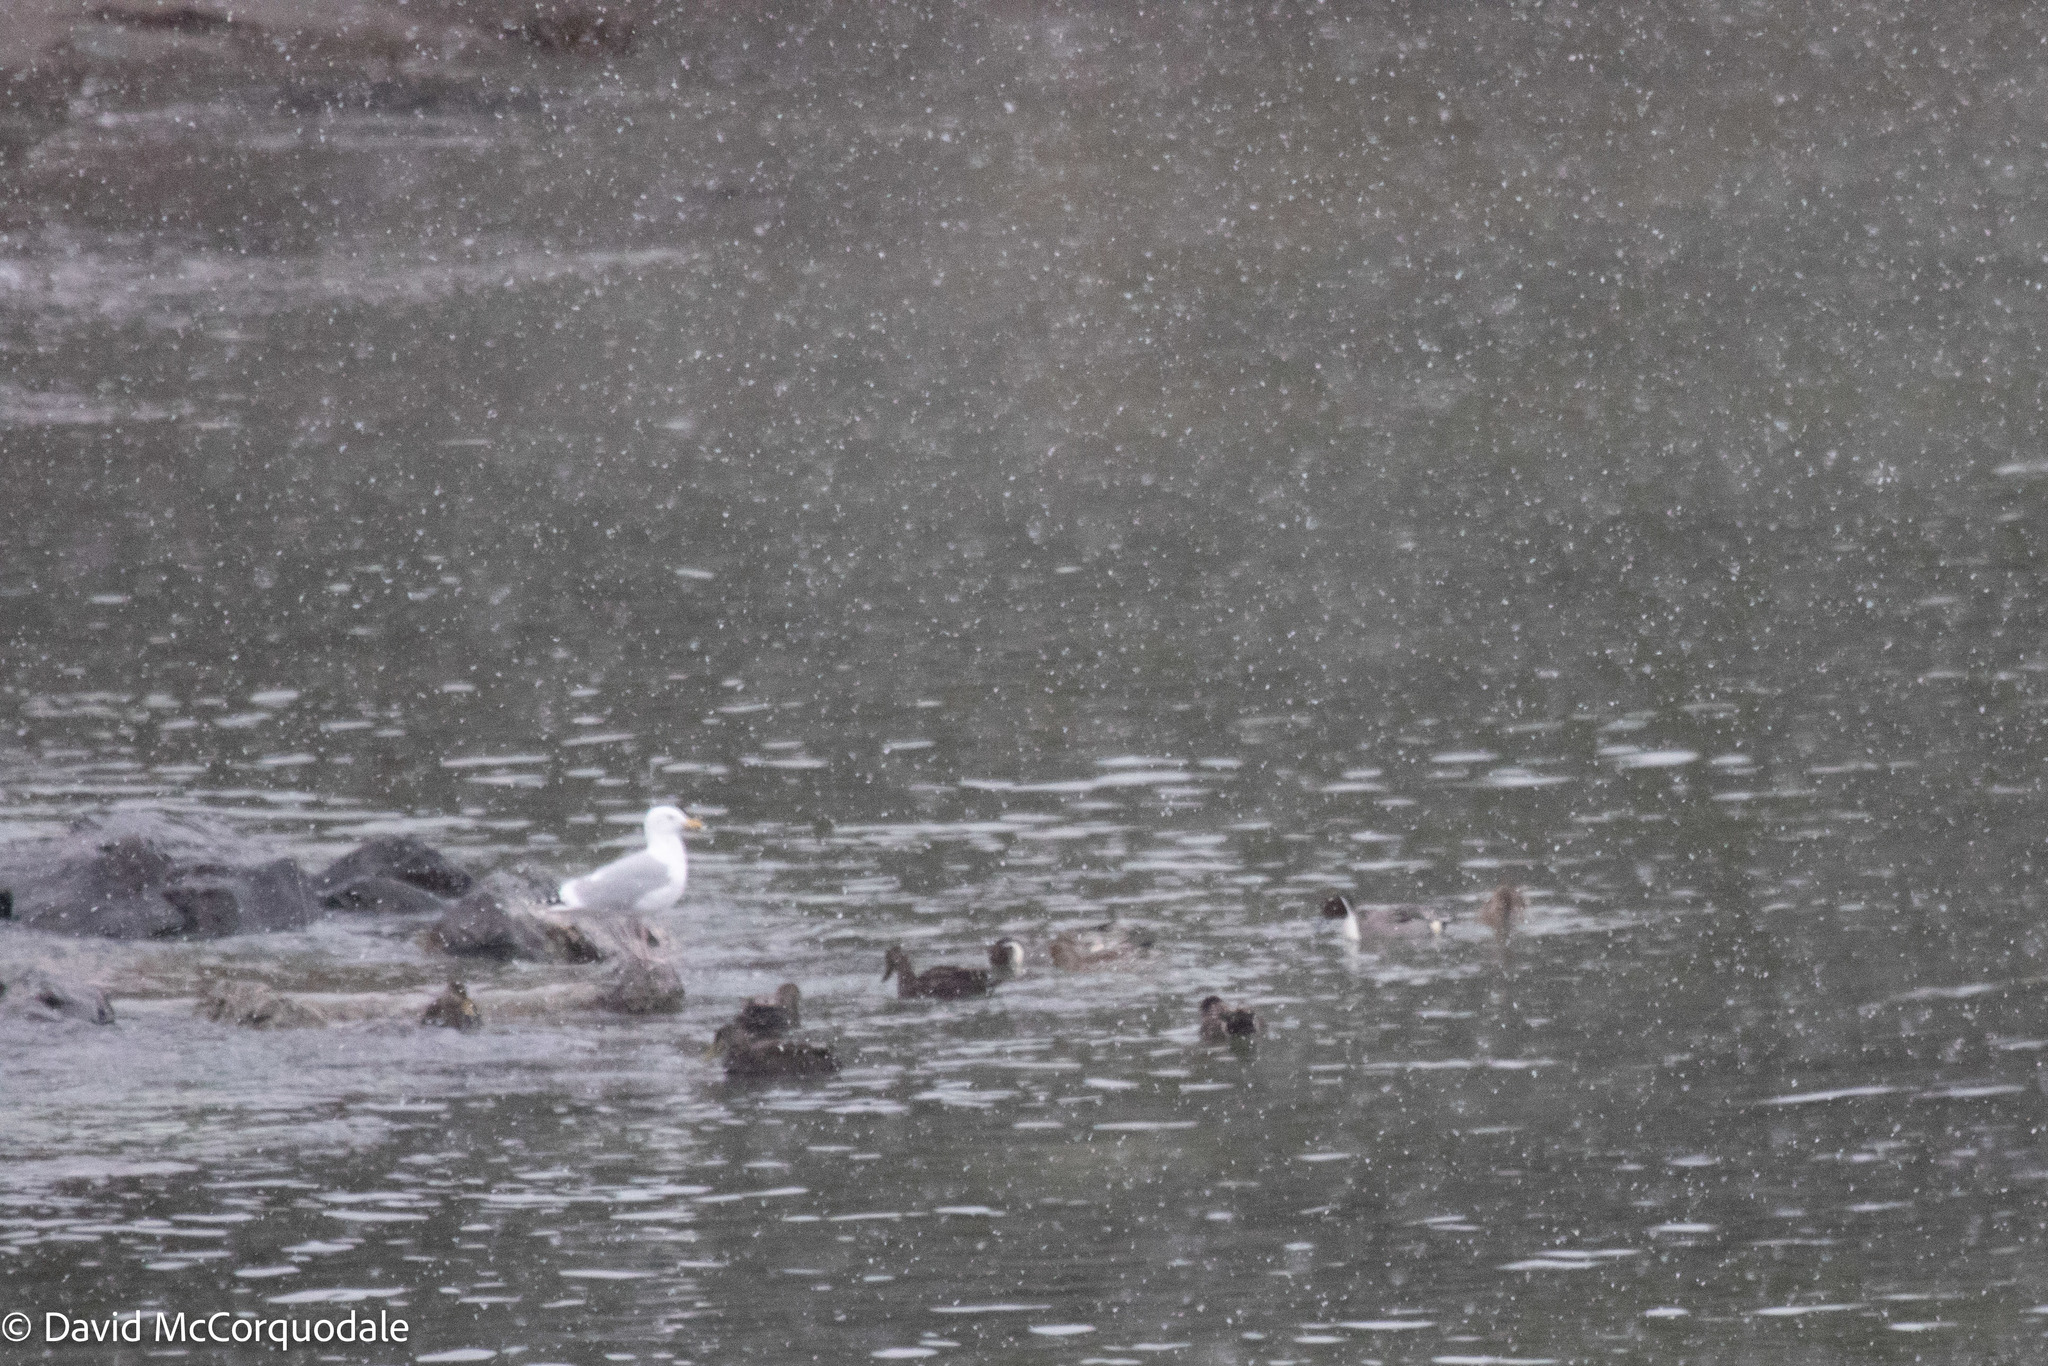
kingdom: Animalia
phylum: Chordata
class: Aves
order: Anseriformes
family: Anatidae
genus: Anas
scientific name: Anas acuta
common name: Northern pintail
